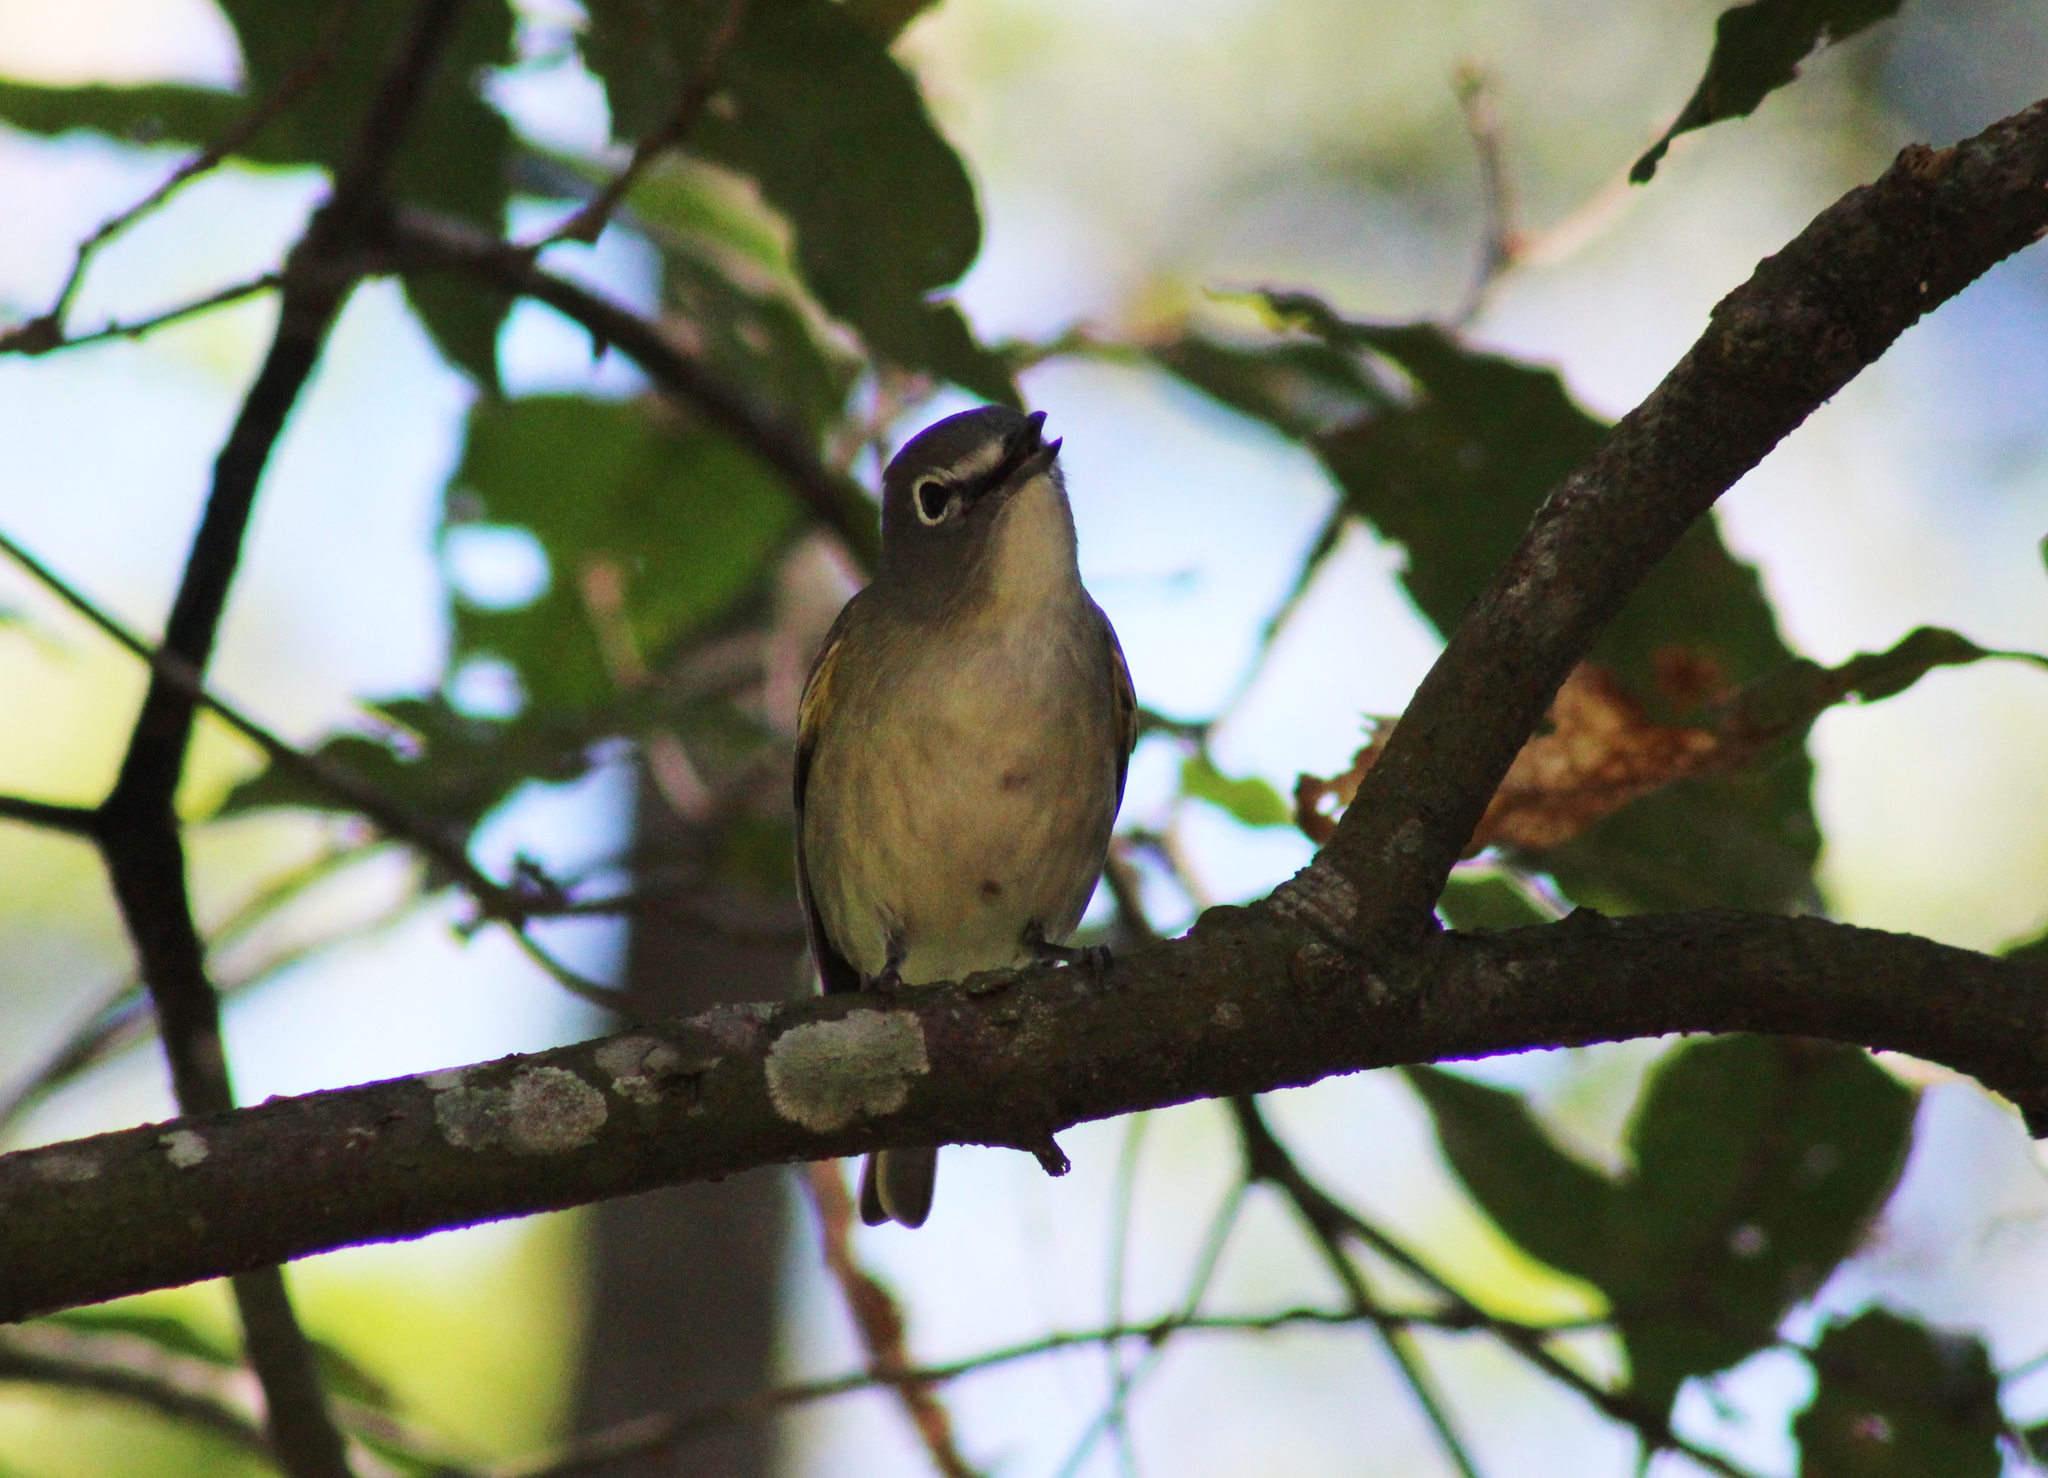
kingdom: Animalia
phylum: Chordata
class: Aves
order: Passeriformes
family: Vireonidae
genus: Vireo
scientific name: Vireo solitarius
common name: Blue-headed vireo
